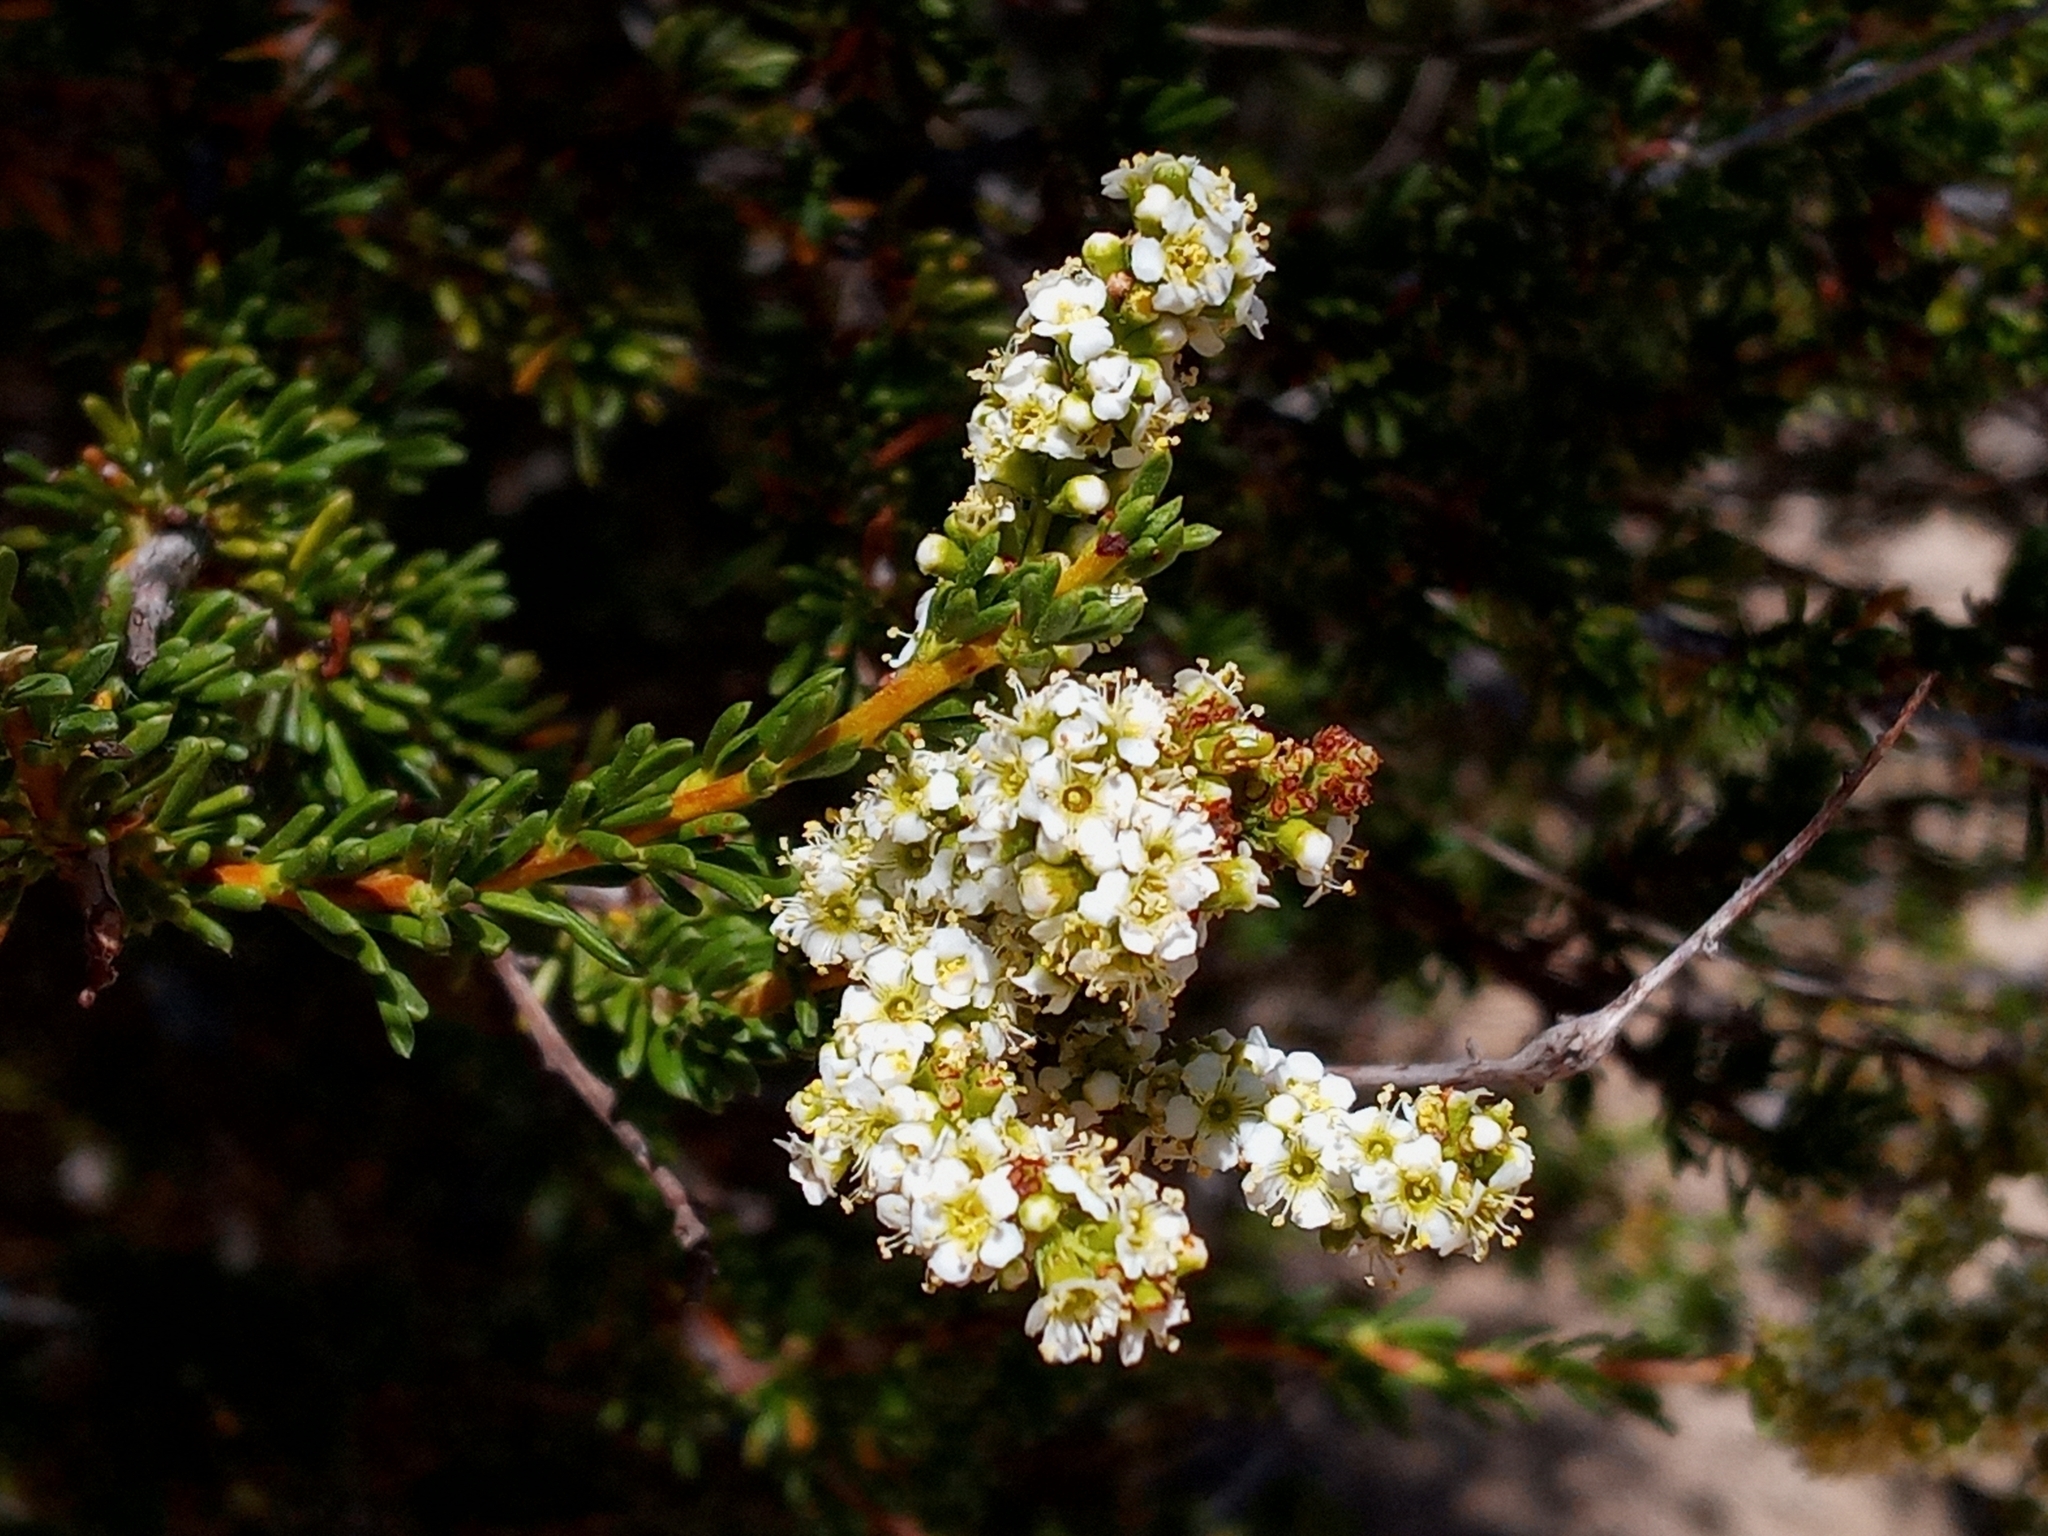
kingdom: Plantae
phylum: Tracheophyta
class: Magnoliopsida
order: Rosales
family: Rosaceae
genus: Adenostoma
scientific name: Adenostoma fasciculatum
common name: Chamise
